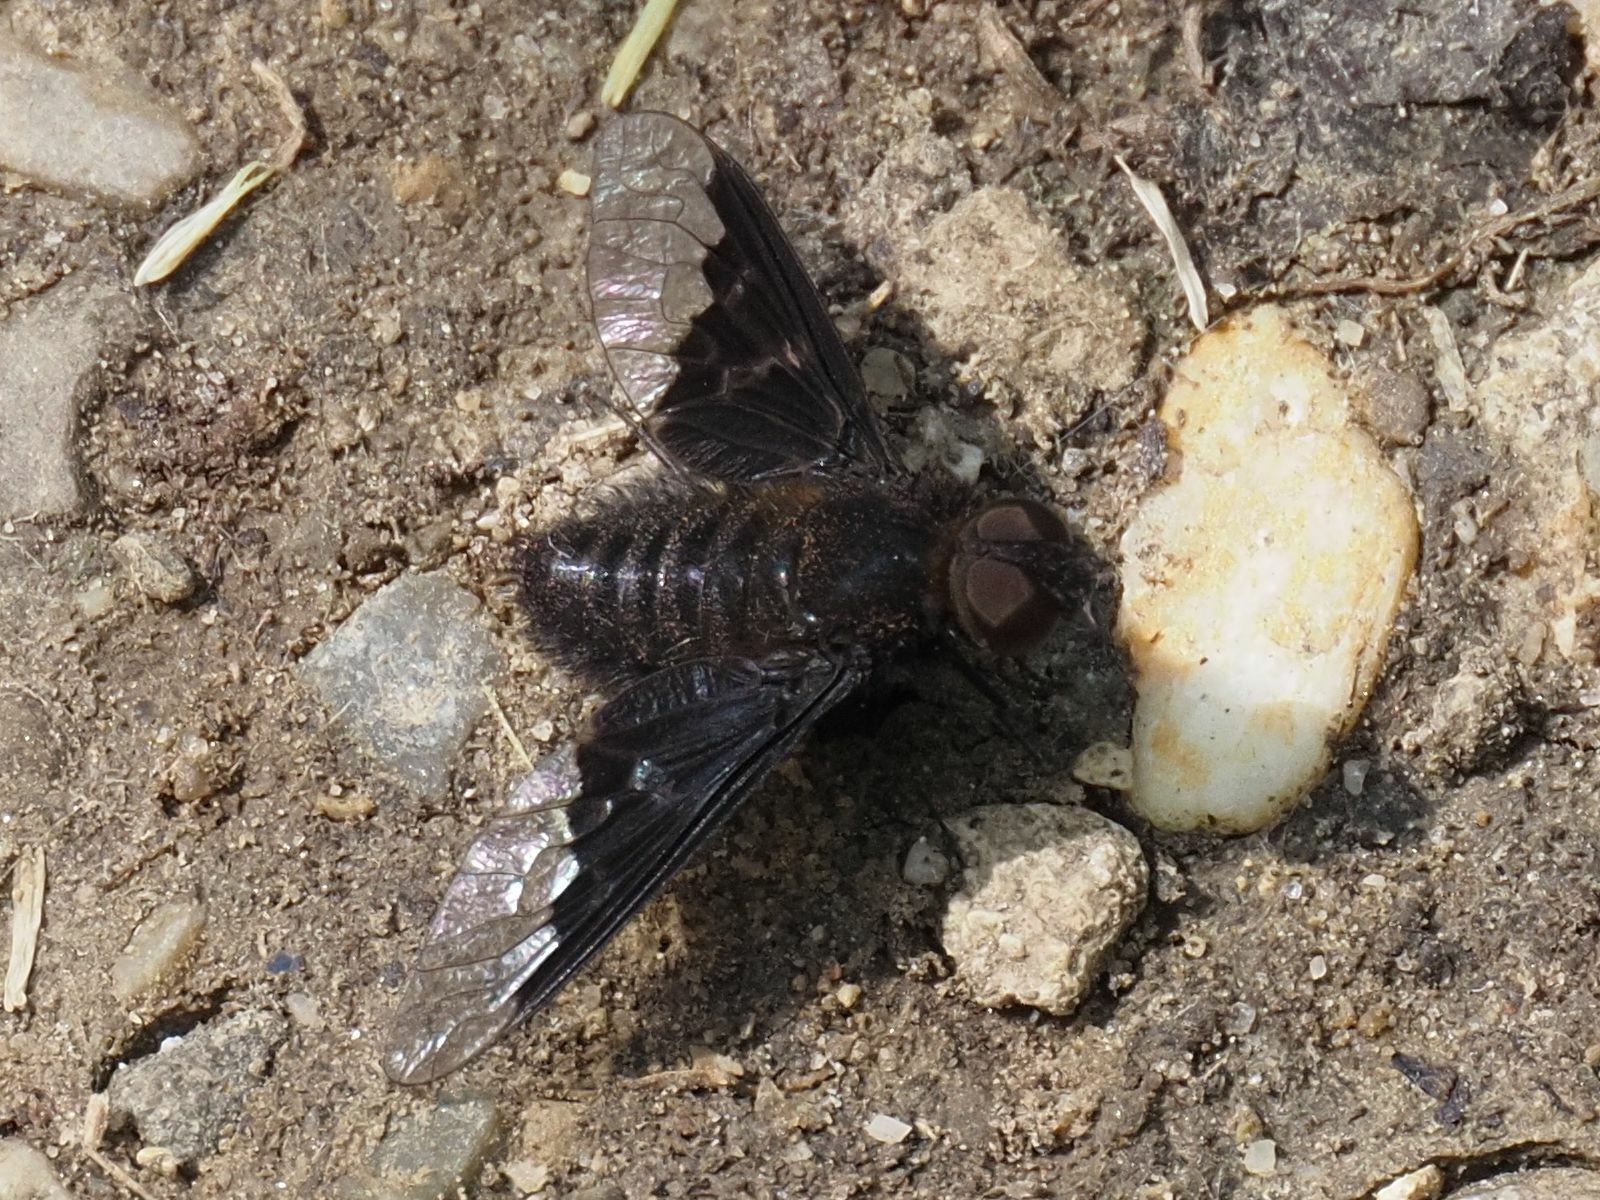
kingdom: Animalia
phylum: Arthropoda
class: Insecta
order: Diptera
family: Bombyliidae
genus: Hemipenthes
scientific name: Hemipenthes morio
